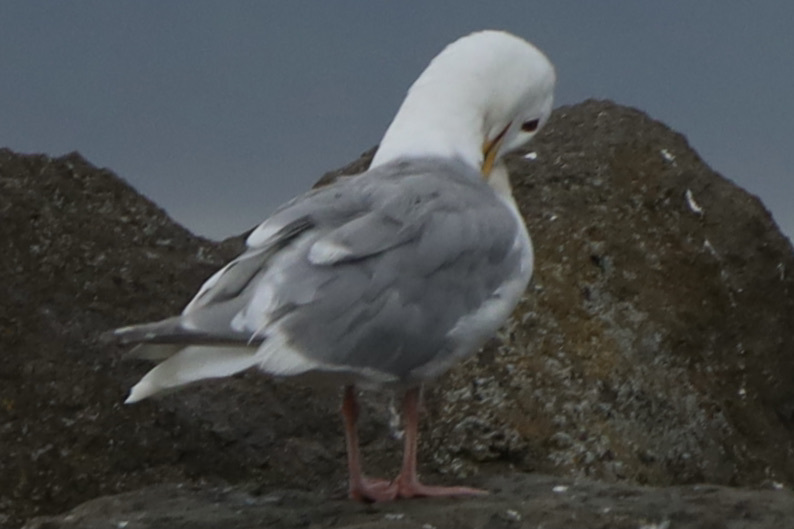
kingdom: Animalia
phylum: Chordata
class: Aves
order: Charadriiformes
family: Laridae
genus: Larus
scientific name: Larus
